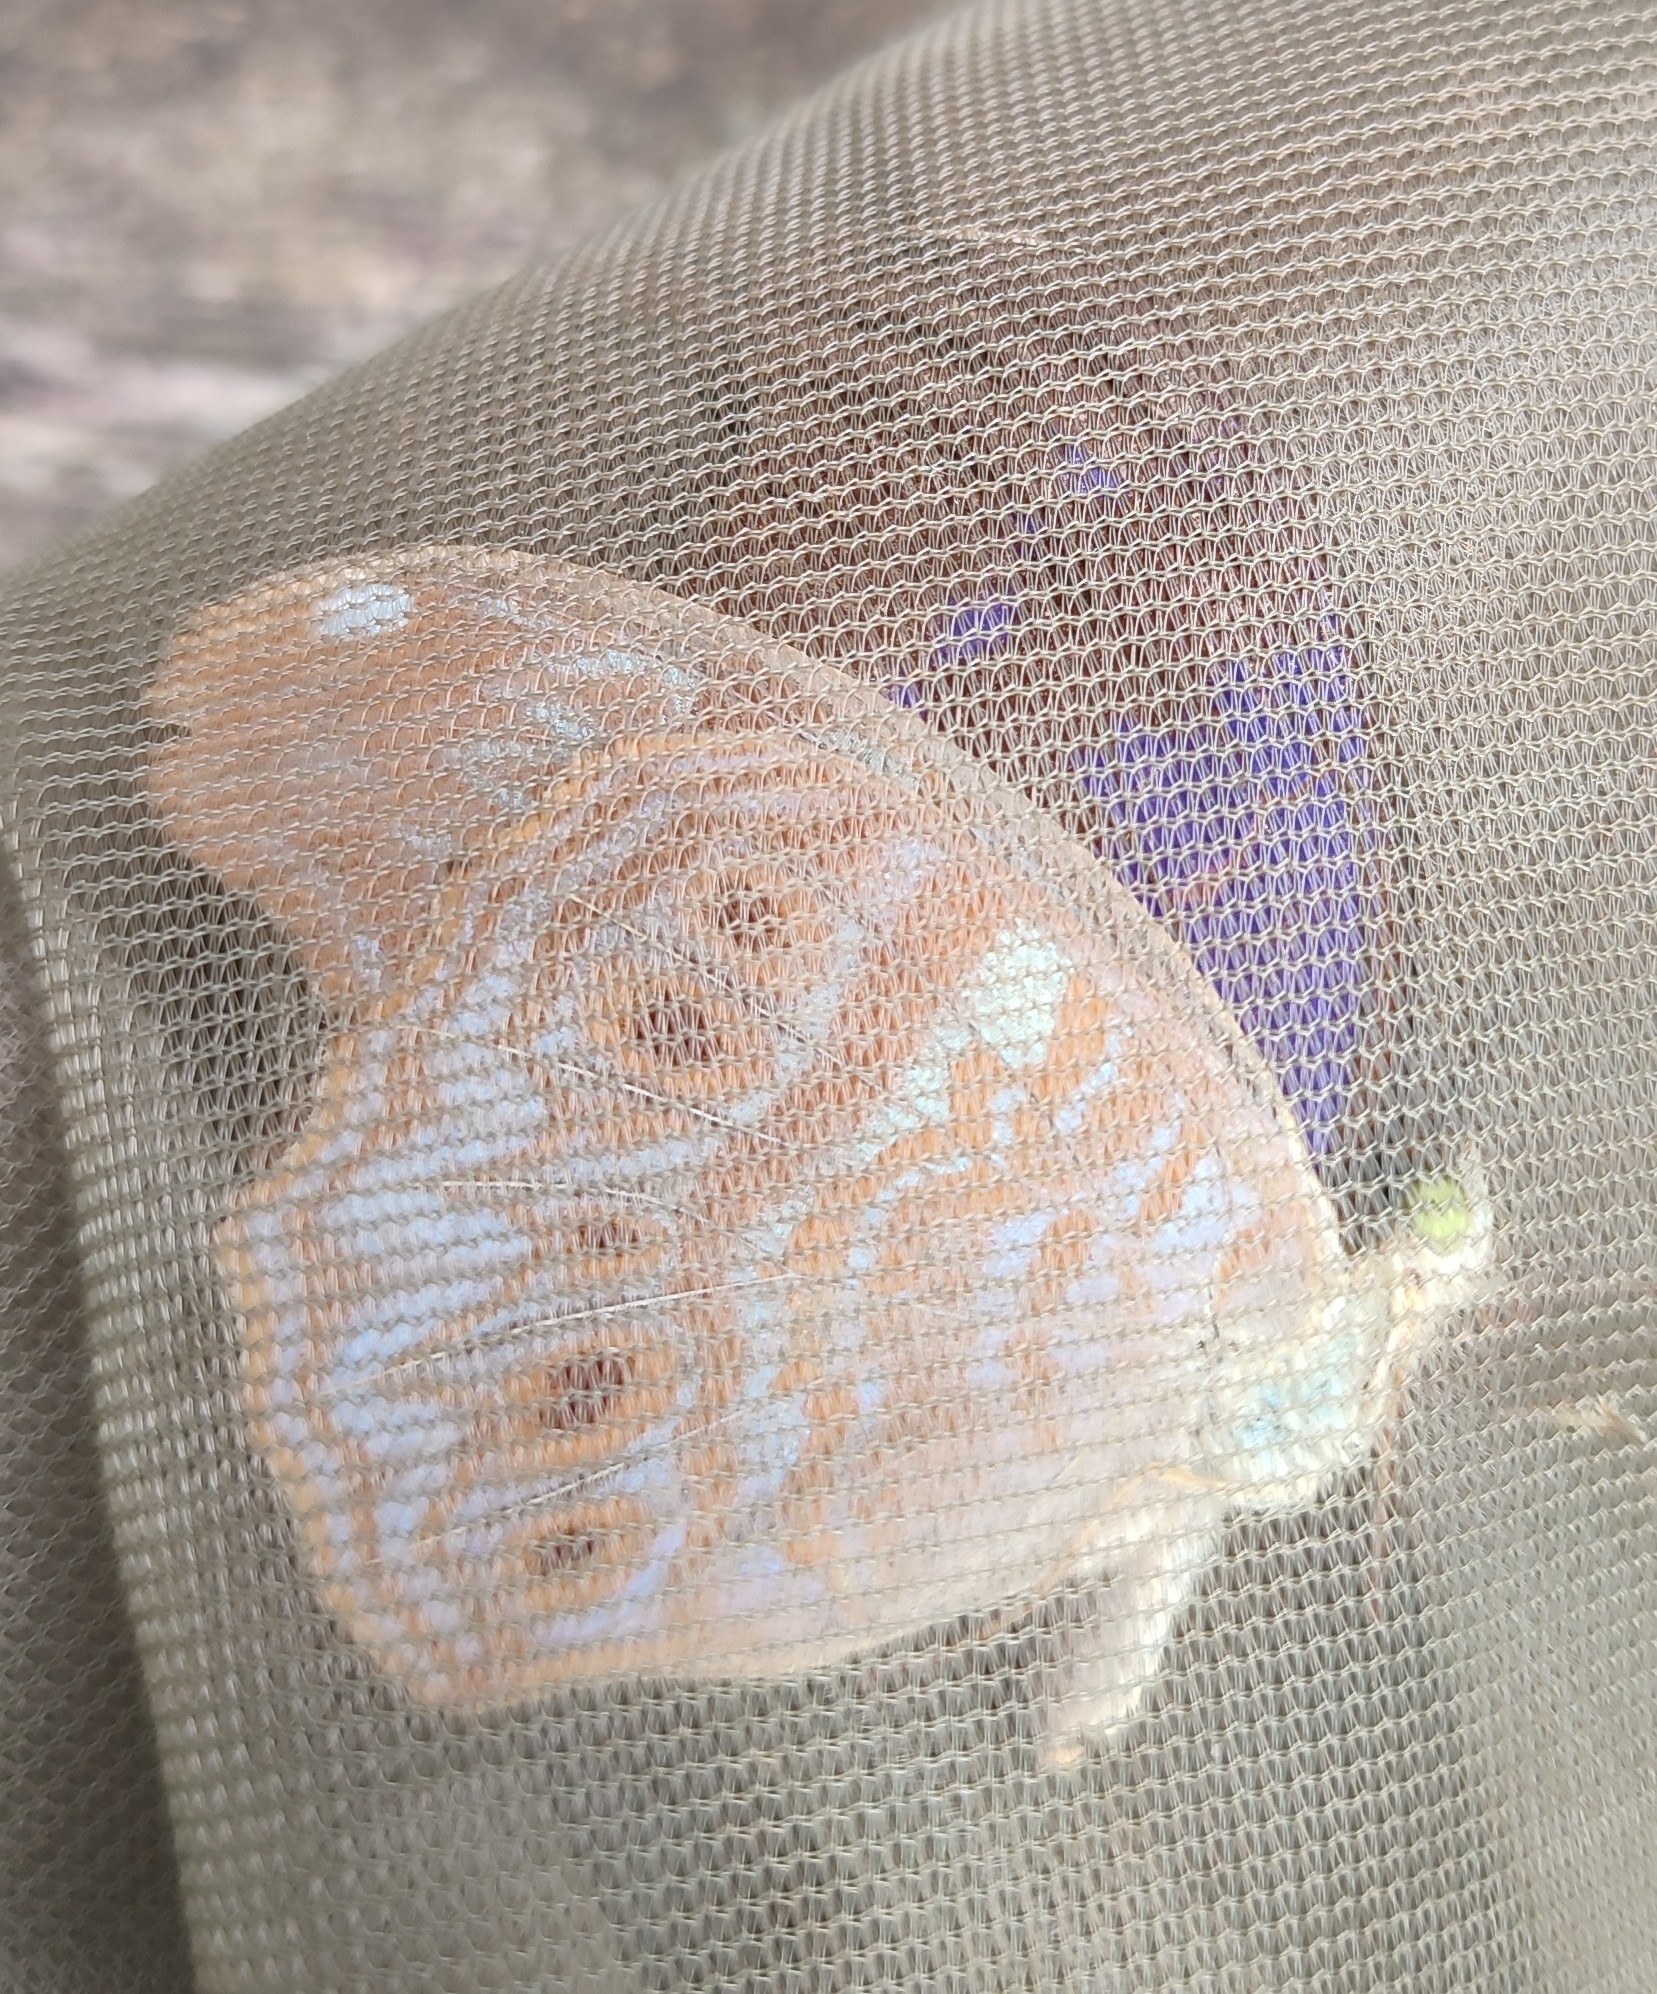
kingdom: Animalia
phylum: Arthropoda
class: Insecta
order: Lepidoptera
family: Nymphalidae
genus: Terinos
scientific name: Terinos terpander
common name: Royal assyrian
